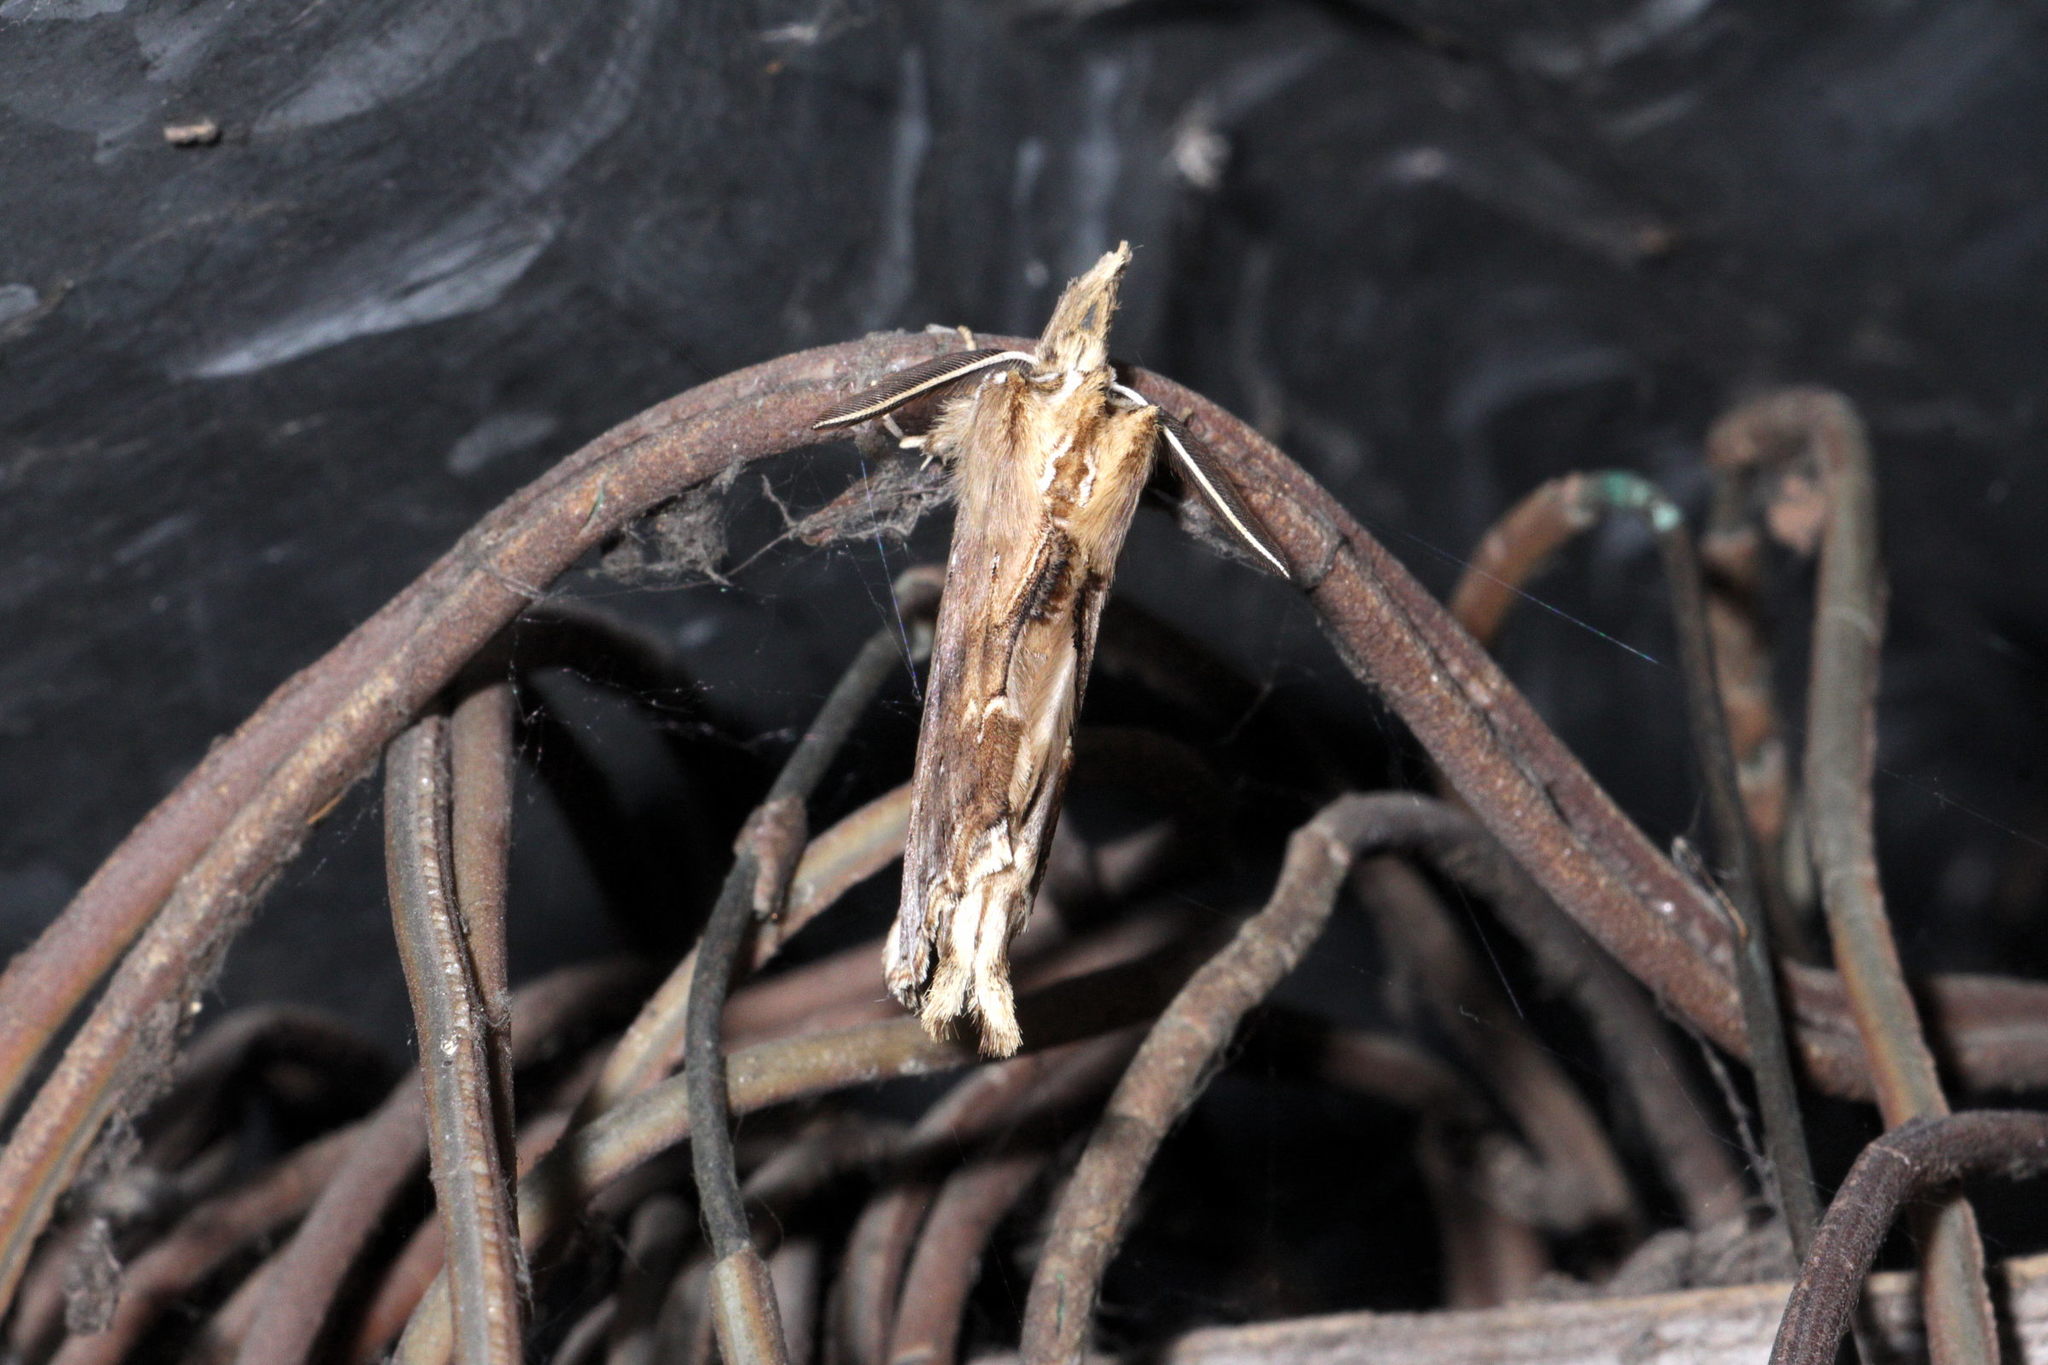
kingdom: Animalia
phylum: Arthropoda
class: Insecta
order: Lepidoptera
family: Notodontidae
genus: Pterostoma
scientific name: Pterostoma palpina
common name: Pale prominent
